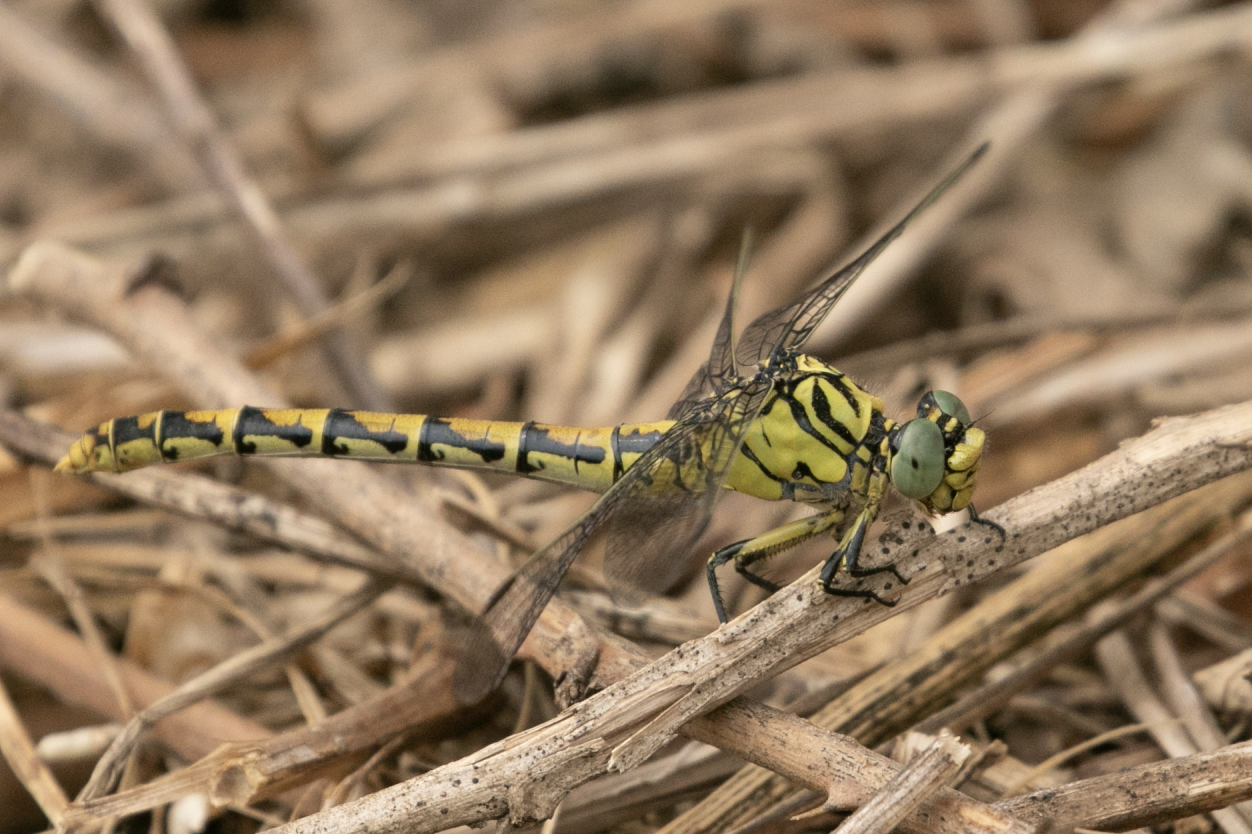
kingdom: Animalia
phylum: Arthropoda
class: Insecta
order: Odonata
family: Gomphidae
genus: Onychogomphus
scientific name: Onychogomphus forcipatus
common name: Small pincertail
